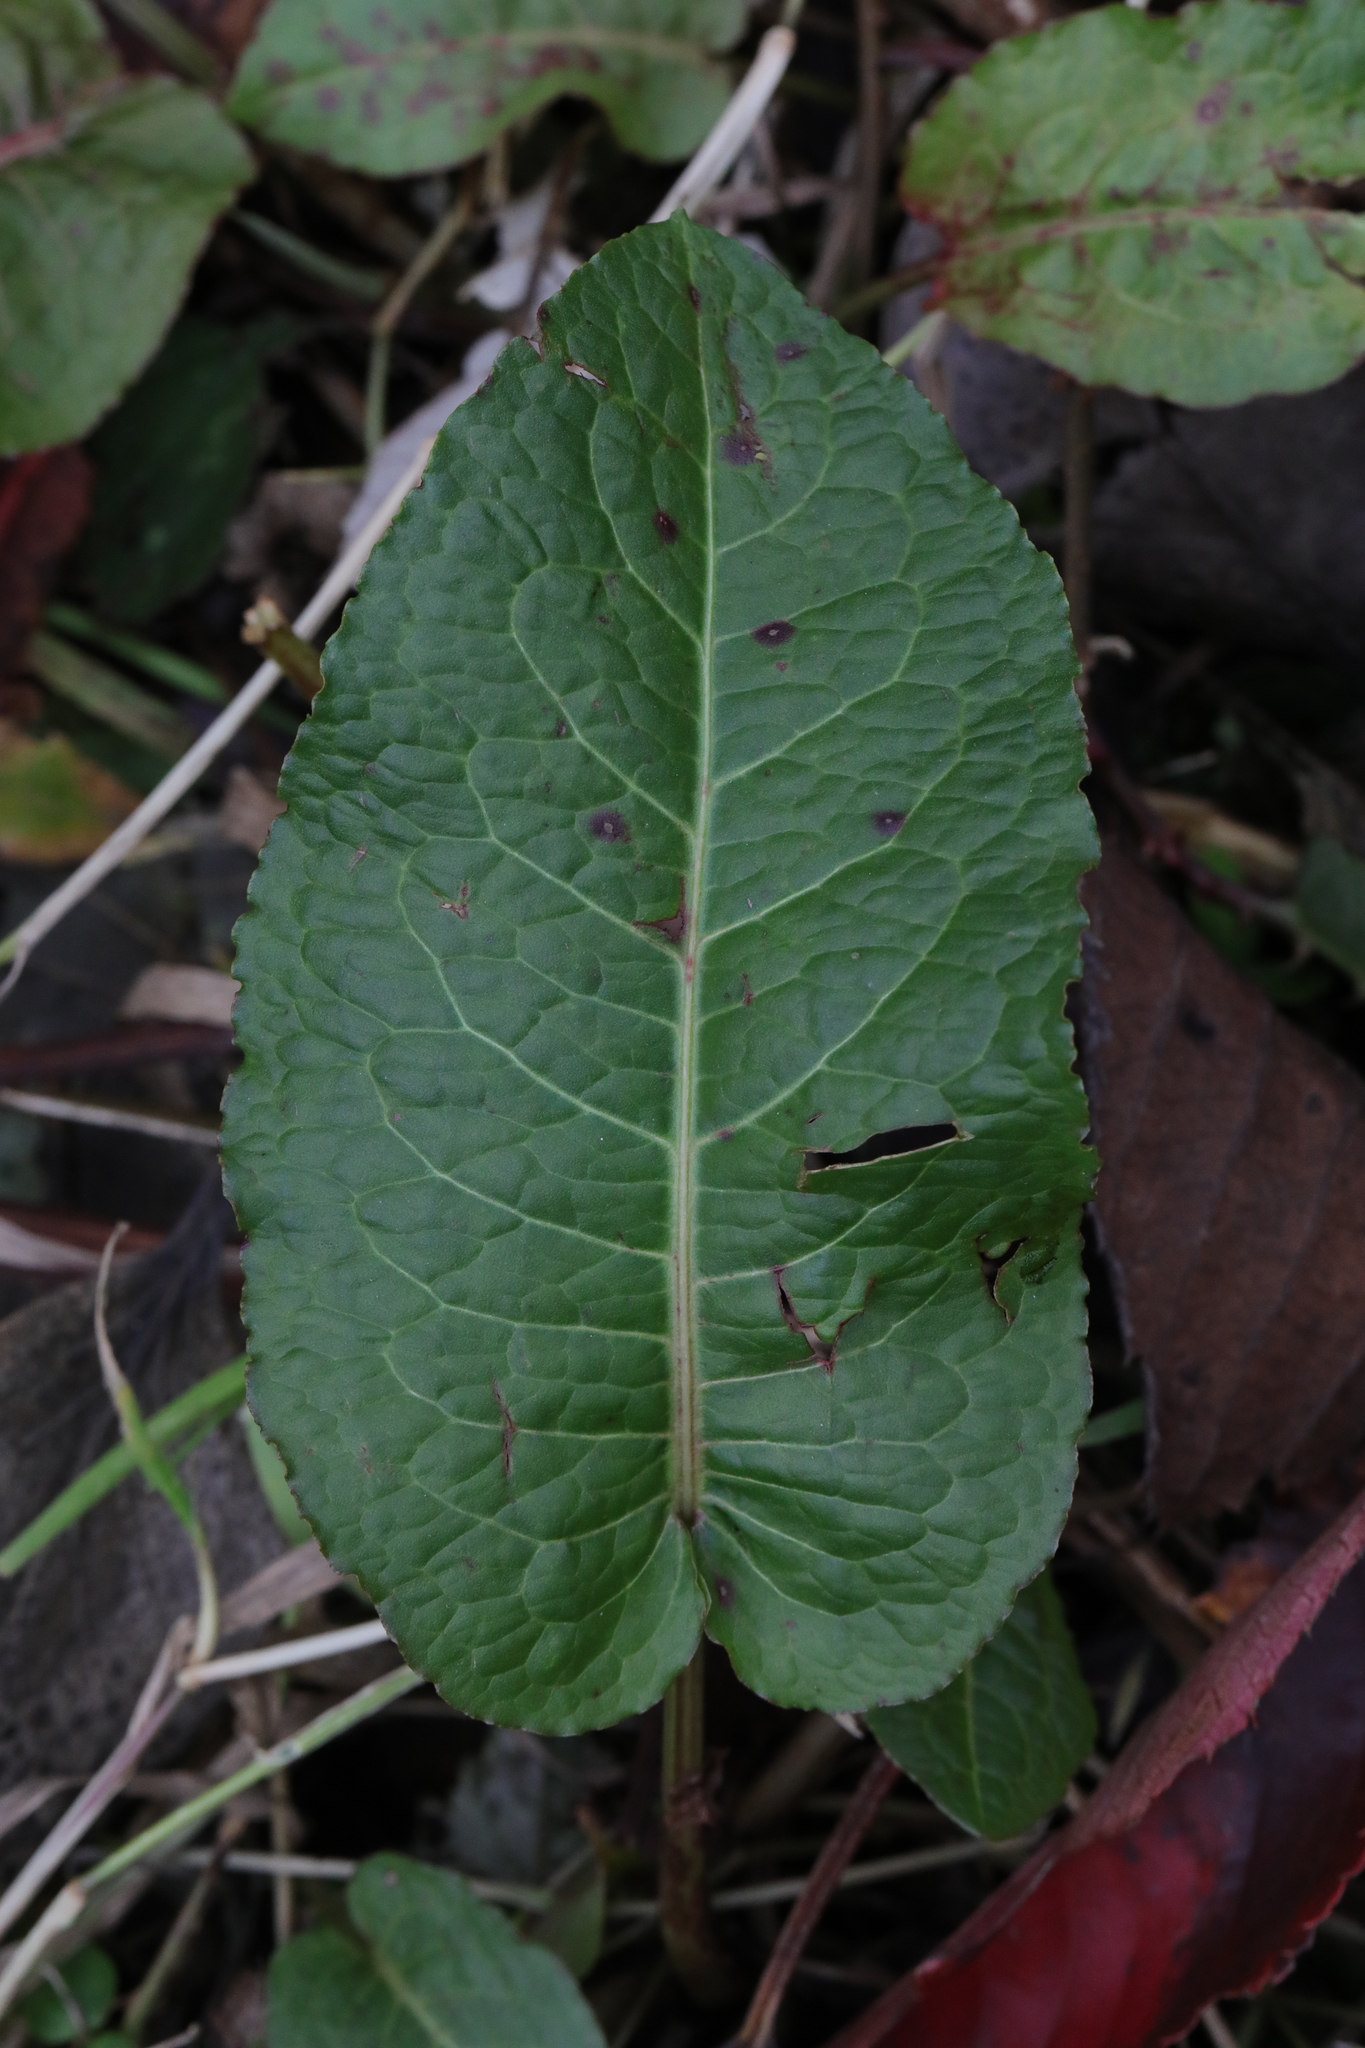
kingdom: Plantae
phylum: Tracheophyta
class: Magnoliopsida
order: Caryophyllales
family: Polygonaceae
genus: Rumex
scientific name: Rumex obtusifolius
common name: Bitter dock
